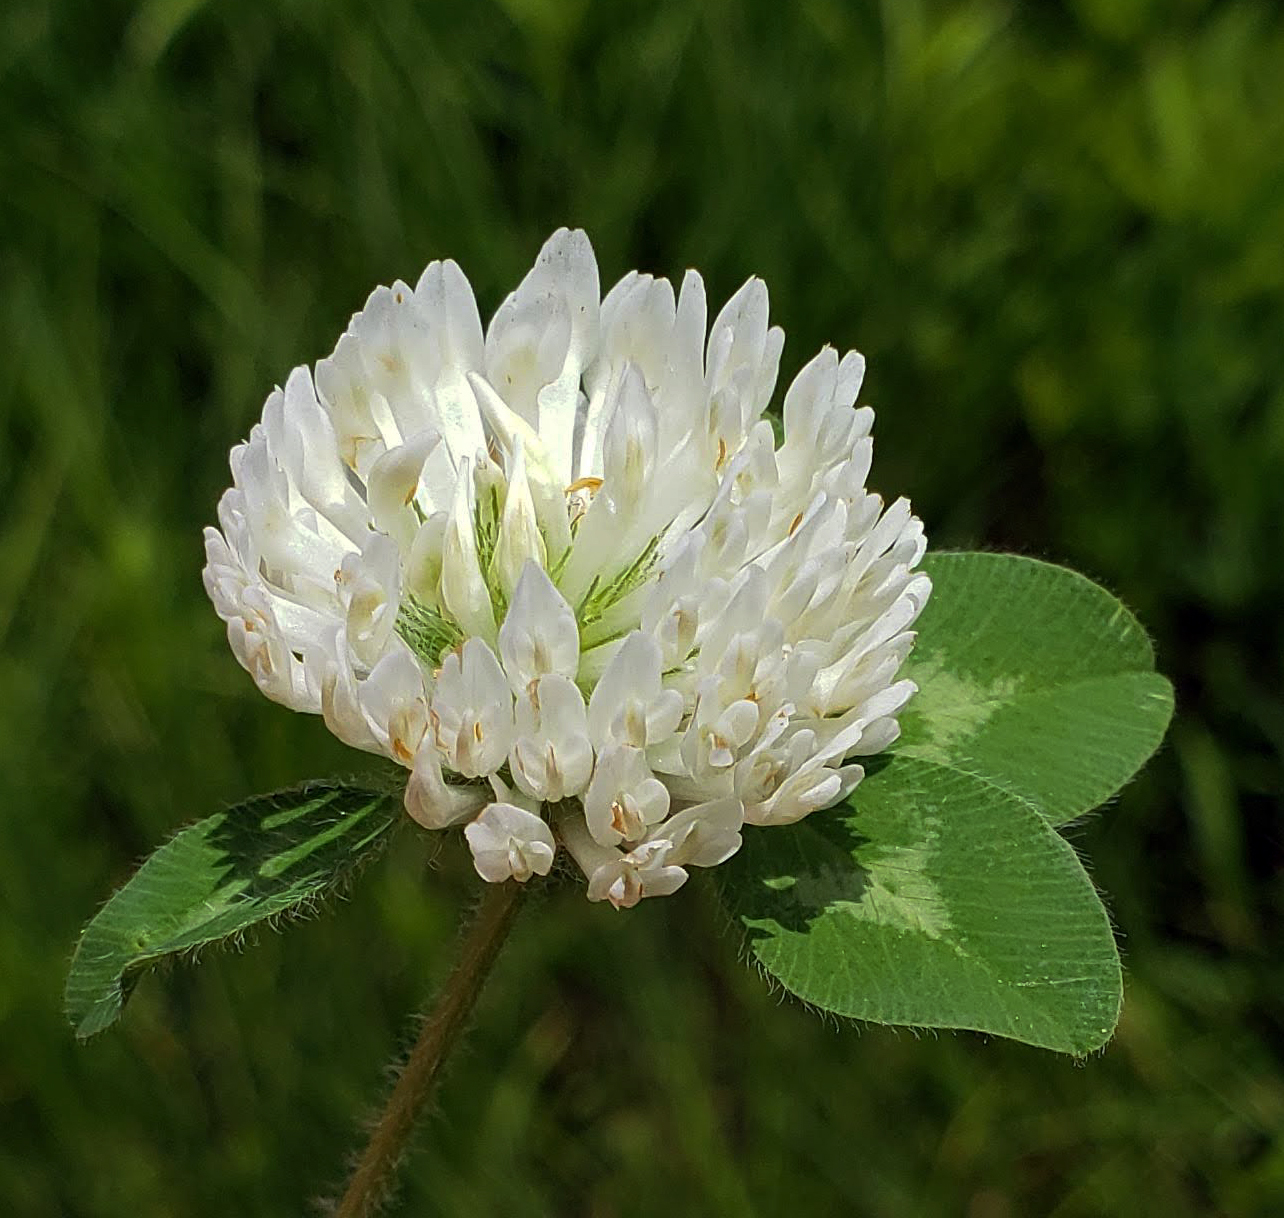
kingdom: Plantae
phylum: Tracheophyta
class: Magnoliopsida
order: Fabales
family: Fabaceae
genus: Trifolium
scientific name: Trifolium pratense
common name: Red clover
